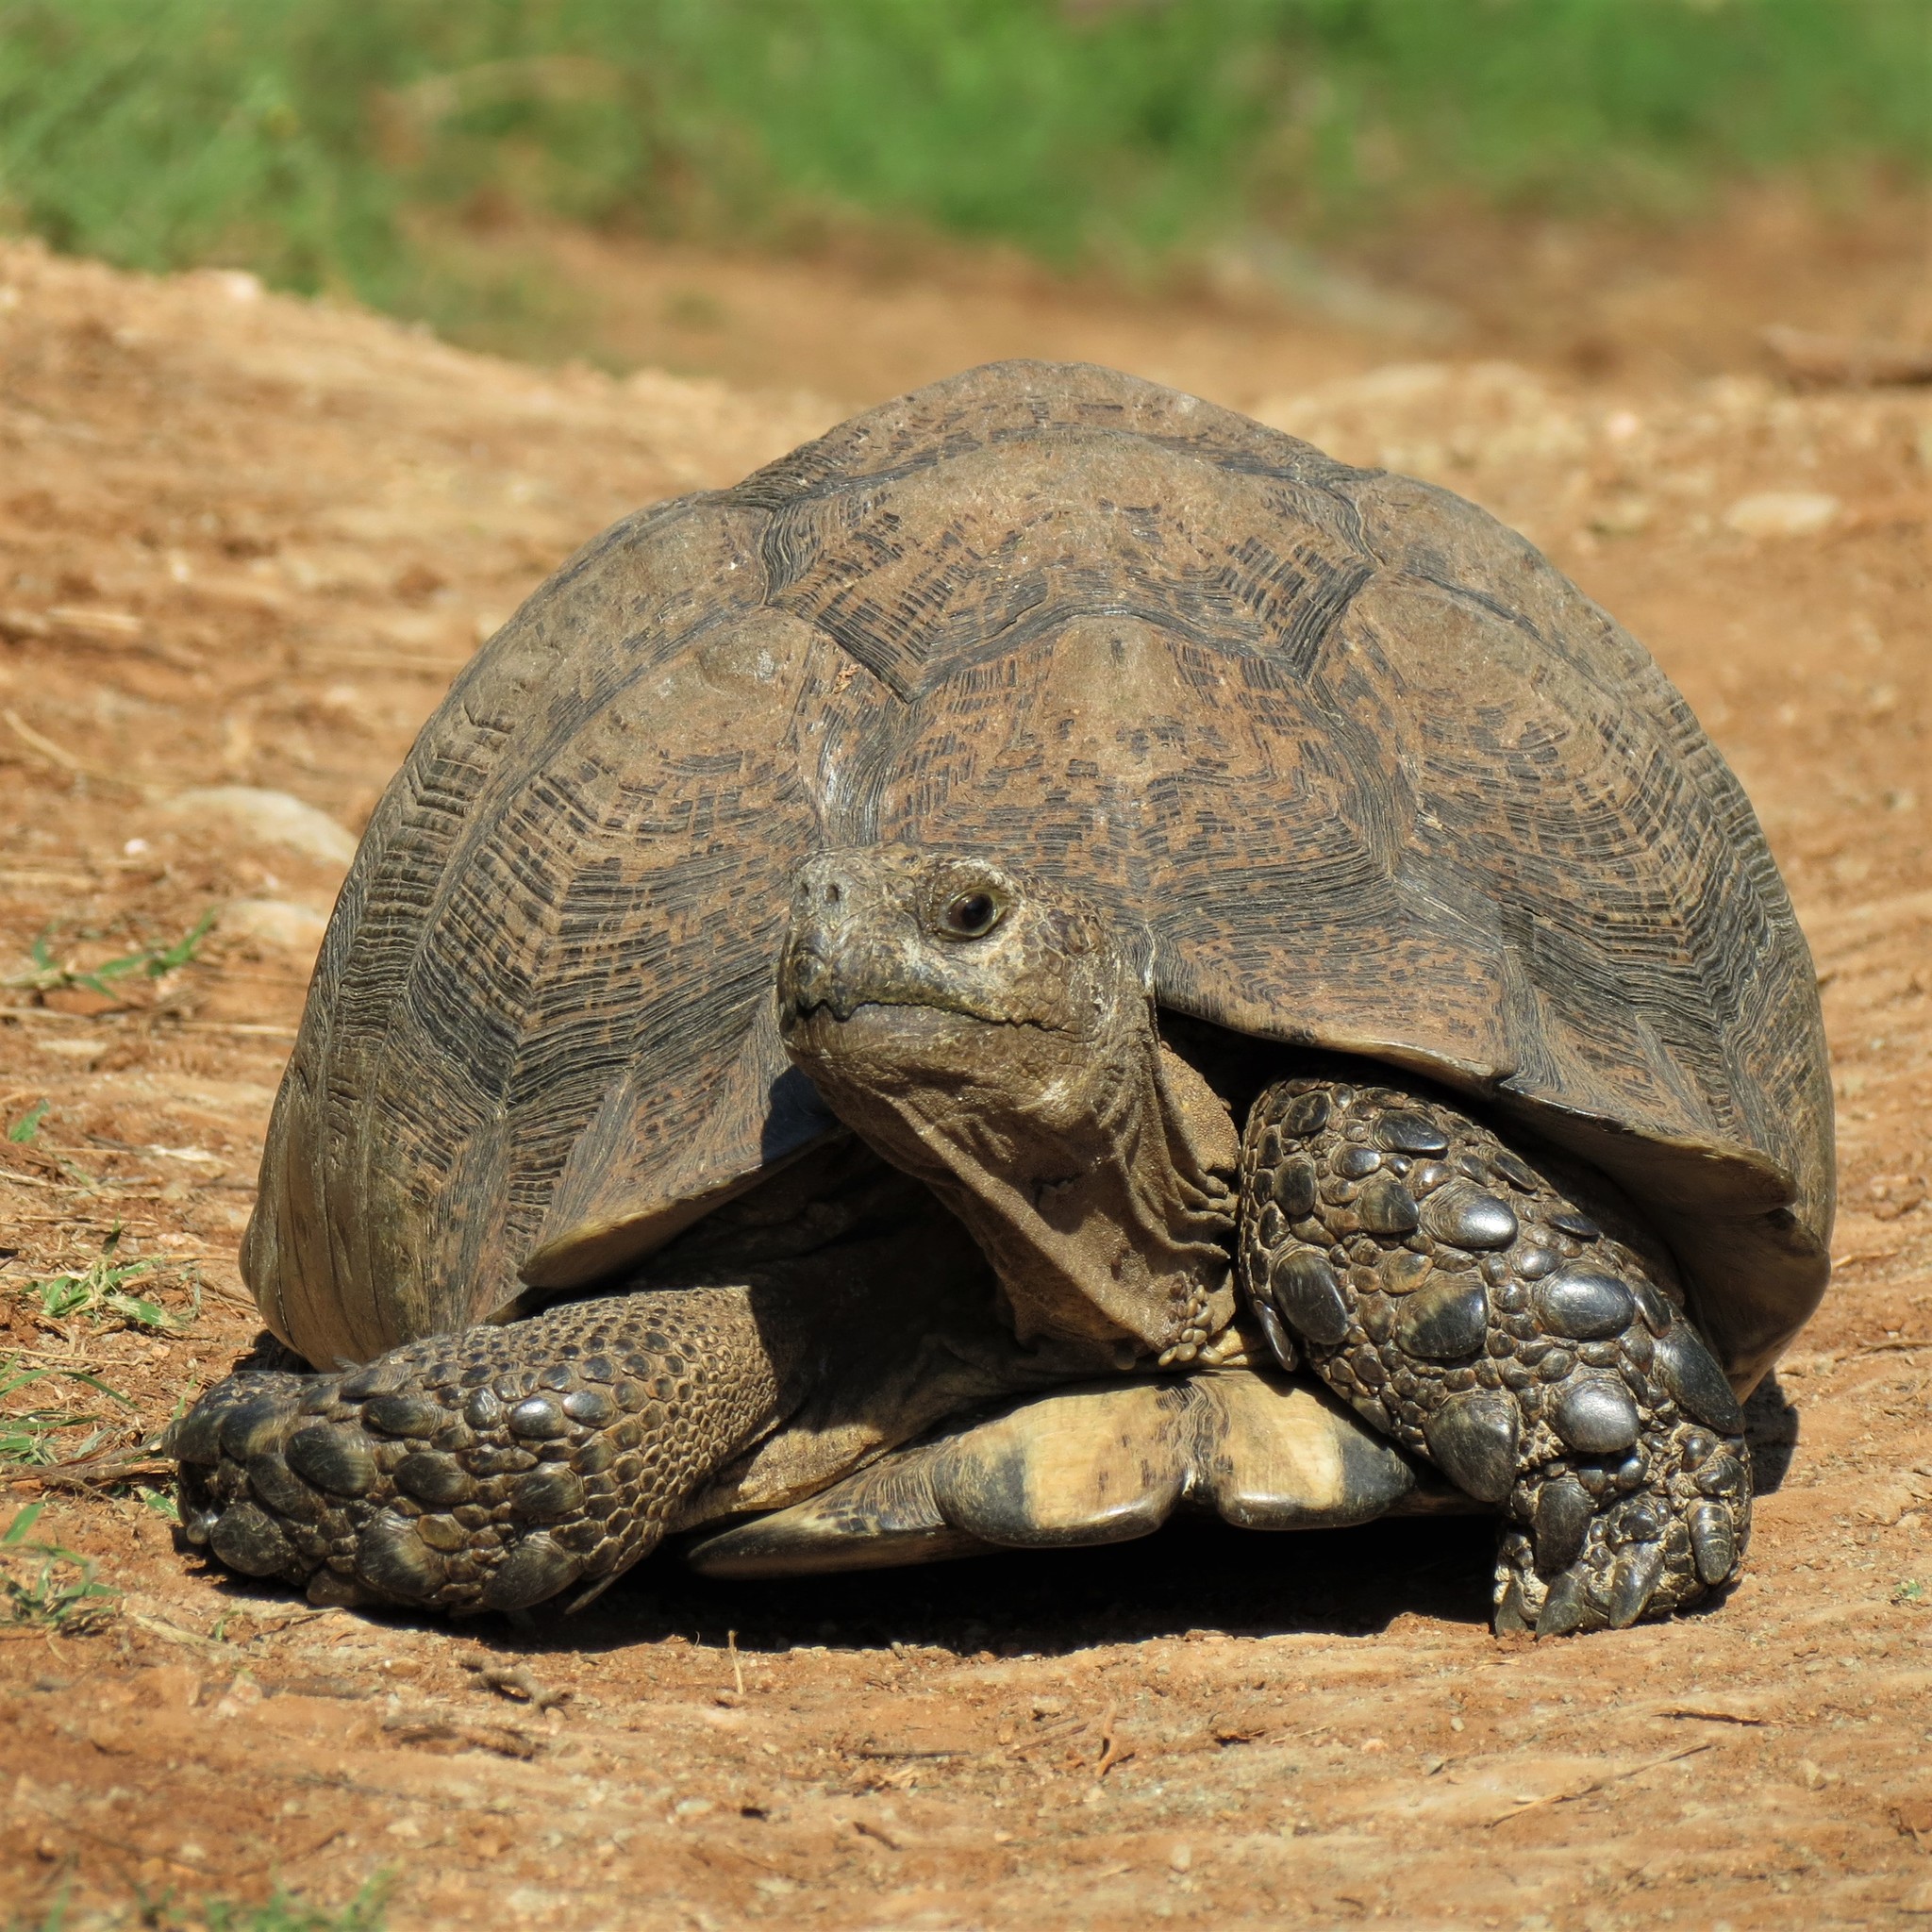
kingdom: Animalia
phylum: Chordata
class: Testudines
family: Testudinidae
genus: Stigmochelys
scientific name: Stigmochelys pardalis
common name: Leopard tortoise
